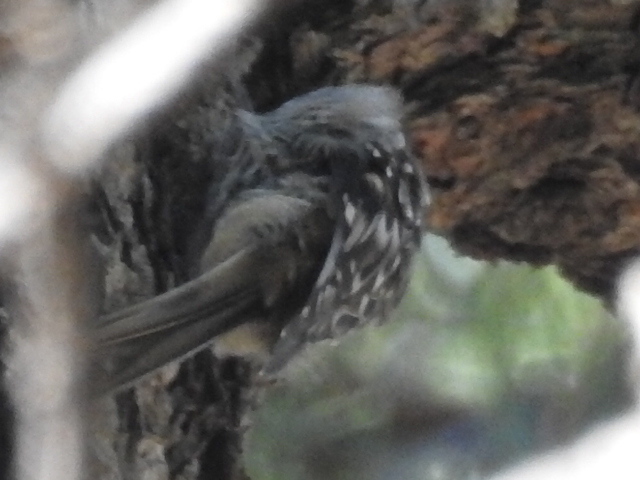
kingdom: Animalia
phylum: Chordata
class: Aves
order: Passeriformes
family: Certhiidae
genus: Certhia
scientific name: Certhia americana
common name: Brown creeper
